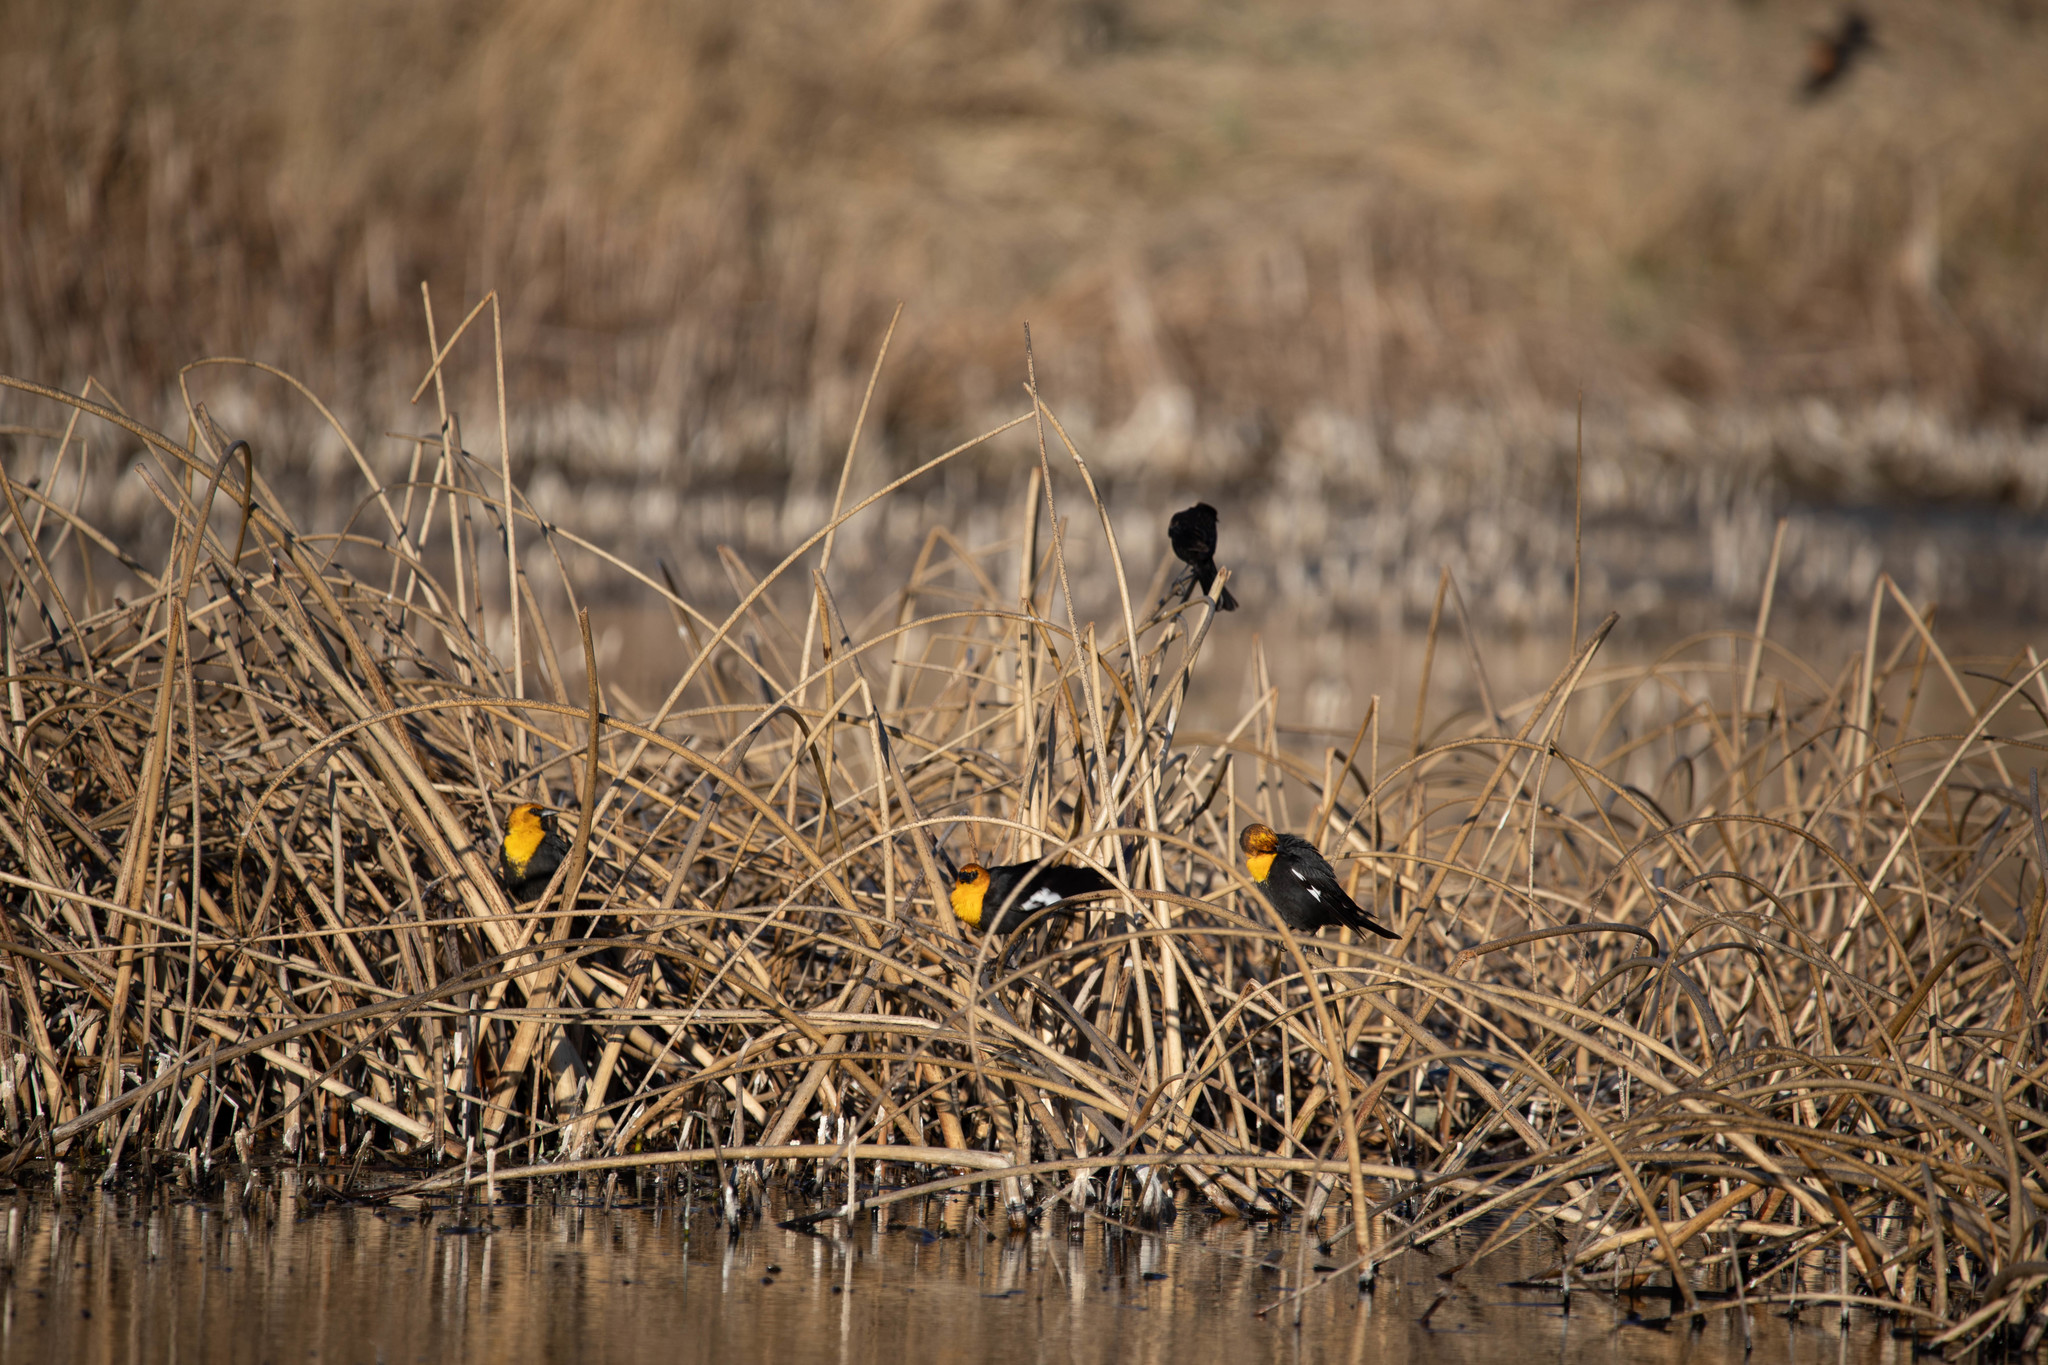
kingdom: Animalia
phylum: Chordata
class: Aves
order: Passeriformes
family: Icteridae
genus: Xanthocephalus
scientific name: Xanthocephalus xanthocephalus
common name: Yellow-headed blackbird
